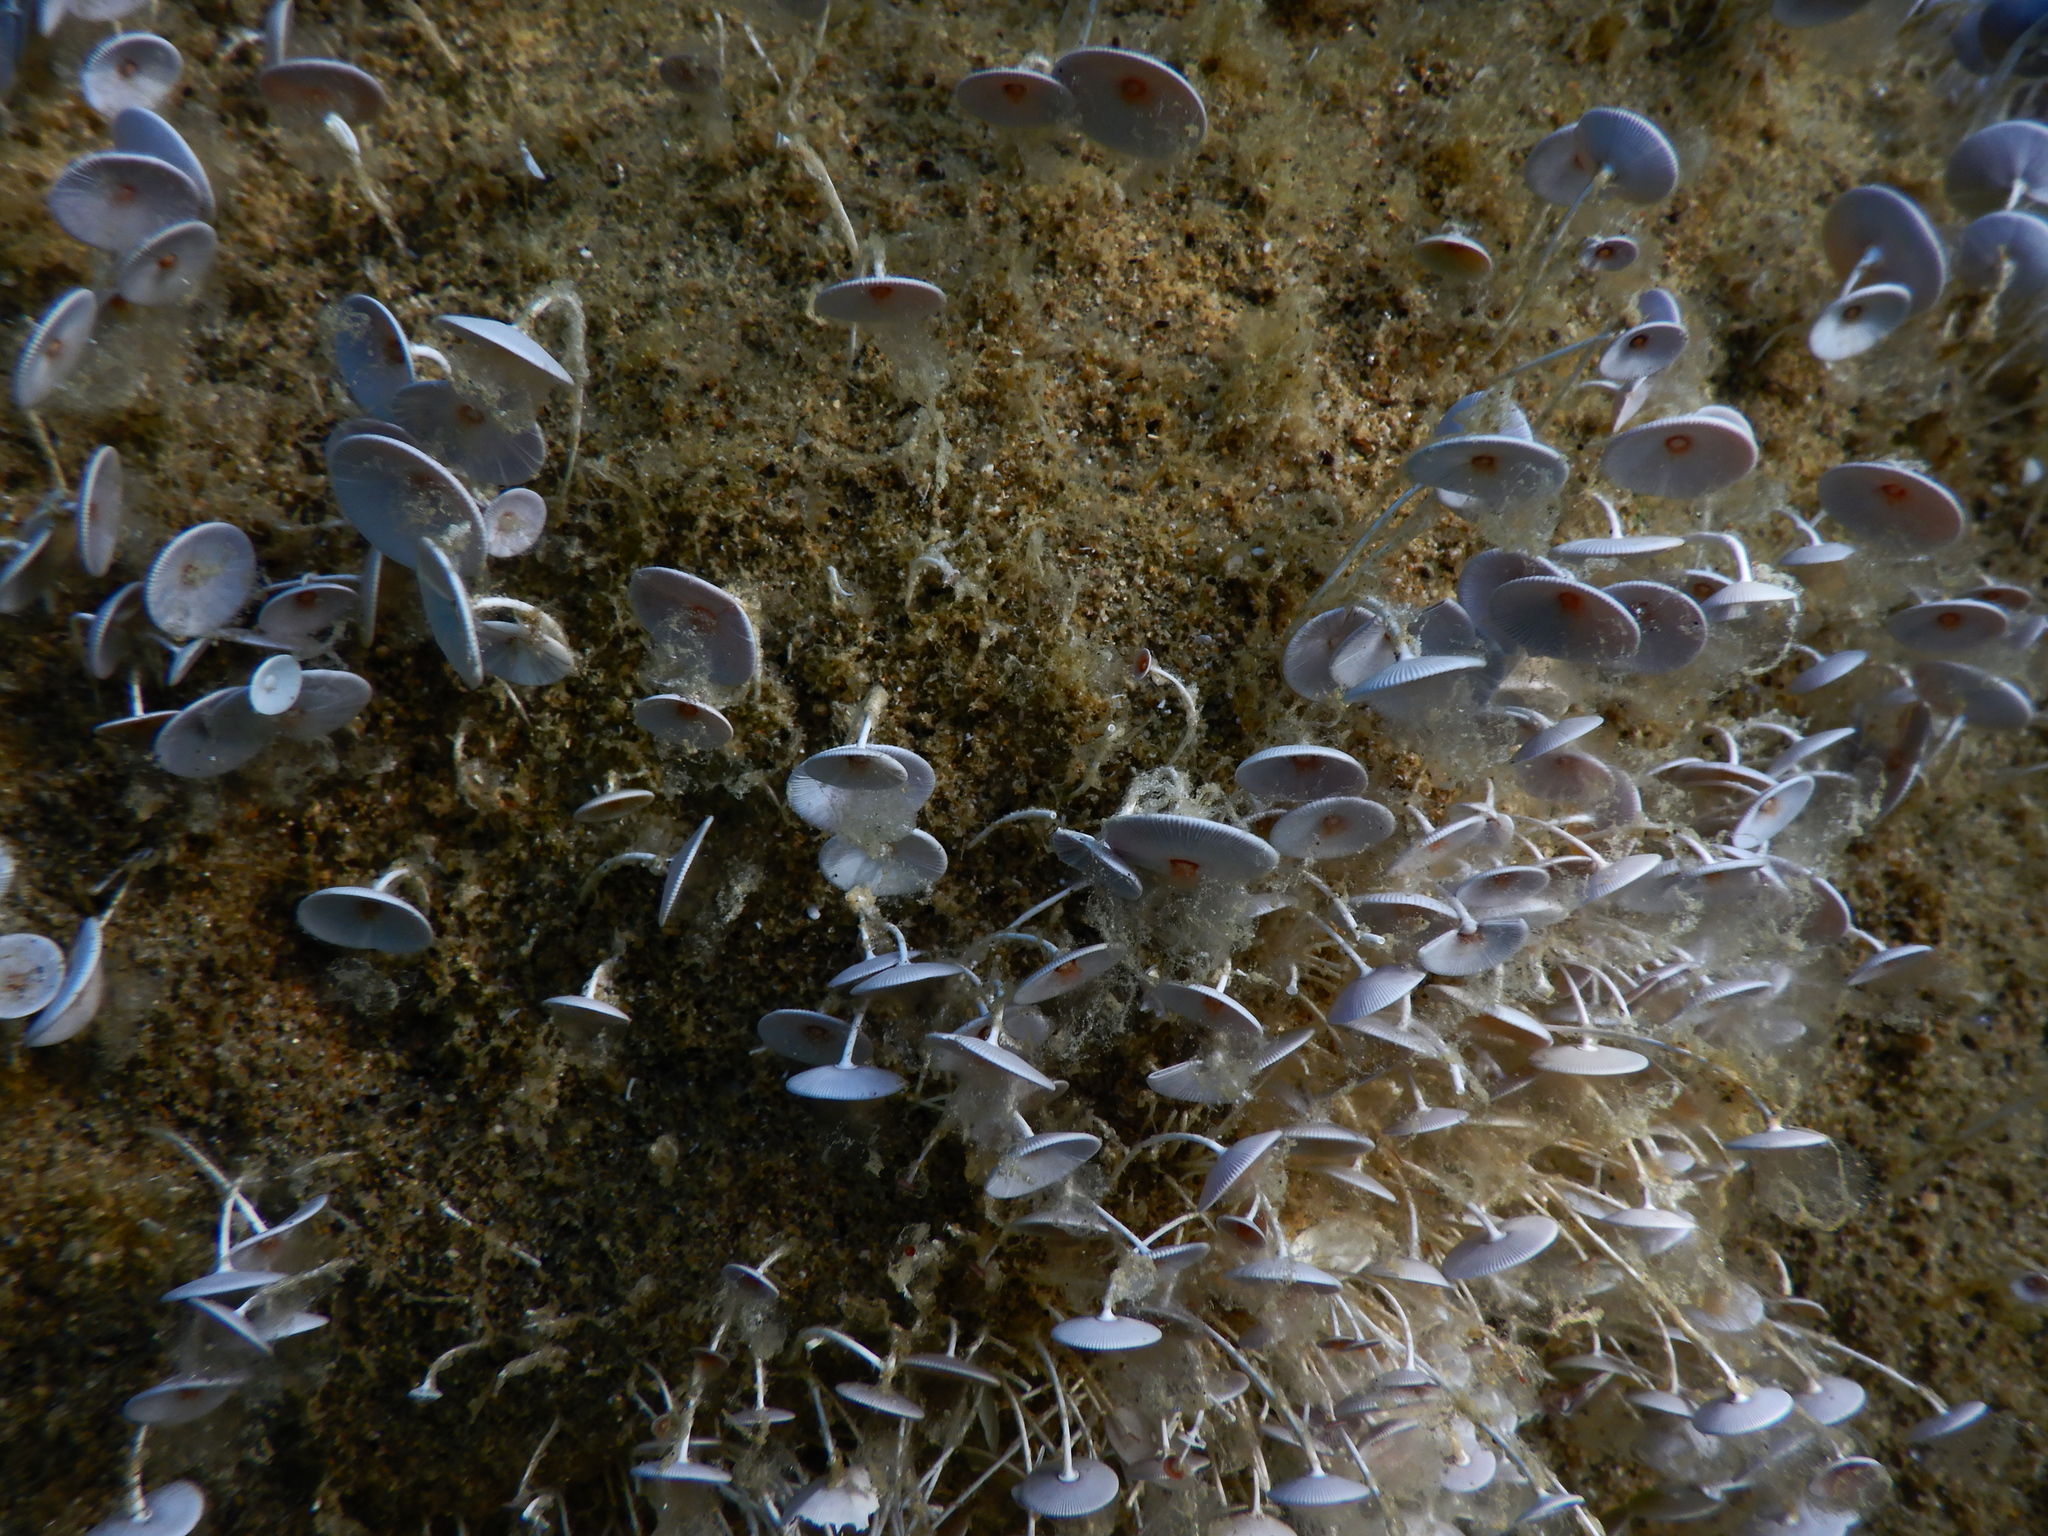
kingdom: Plantae
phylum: Chlorophyta
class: Ulvophyceae
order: Dasycladales
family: Polyphysaceae
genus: Acetabularia
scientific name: Acetabularia acetabulum
